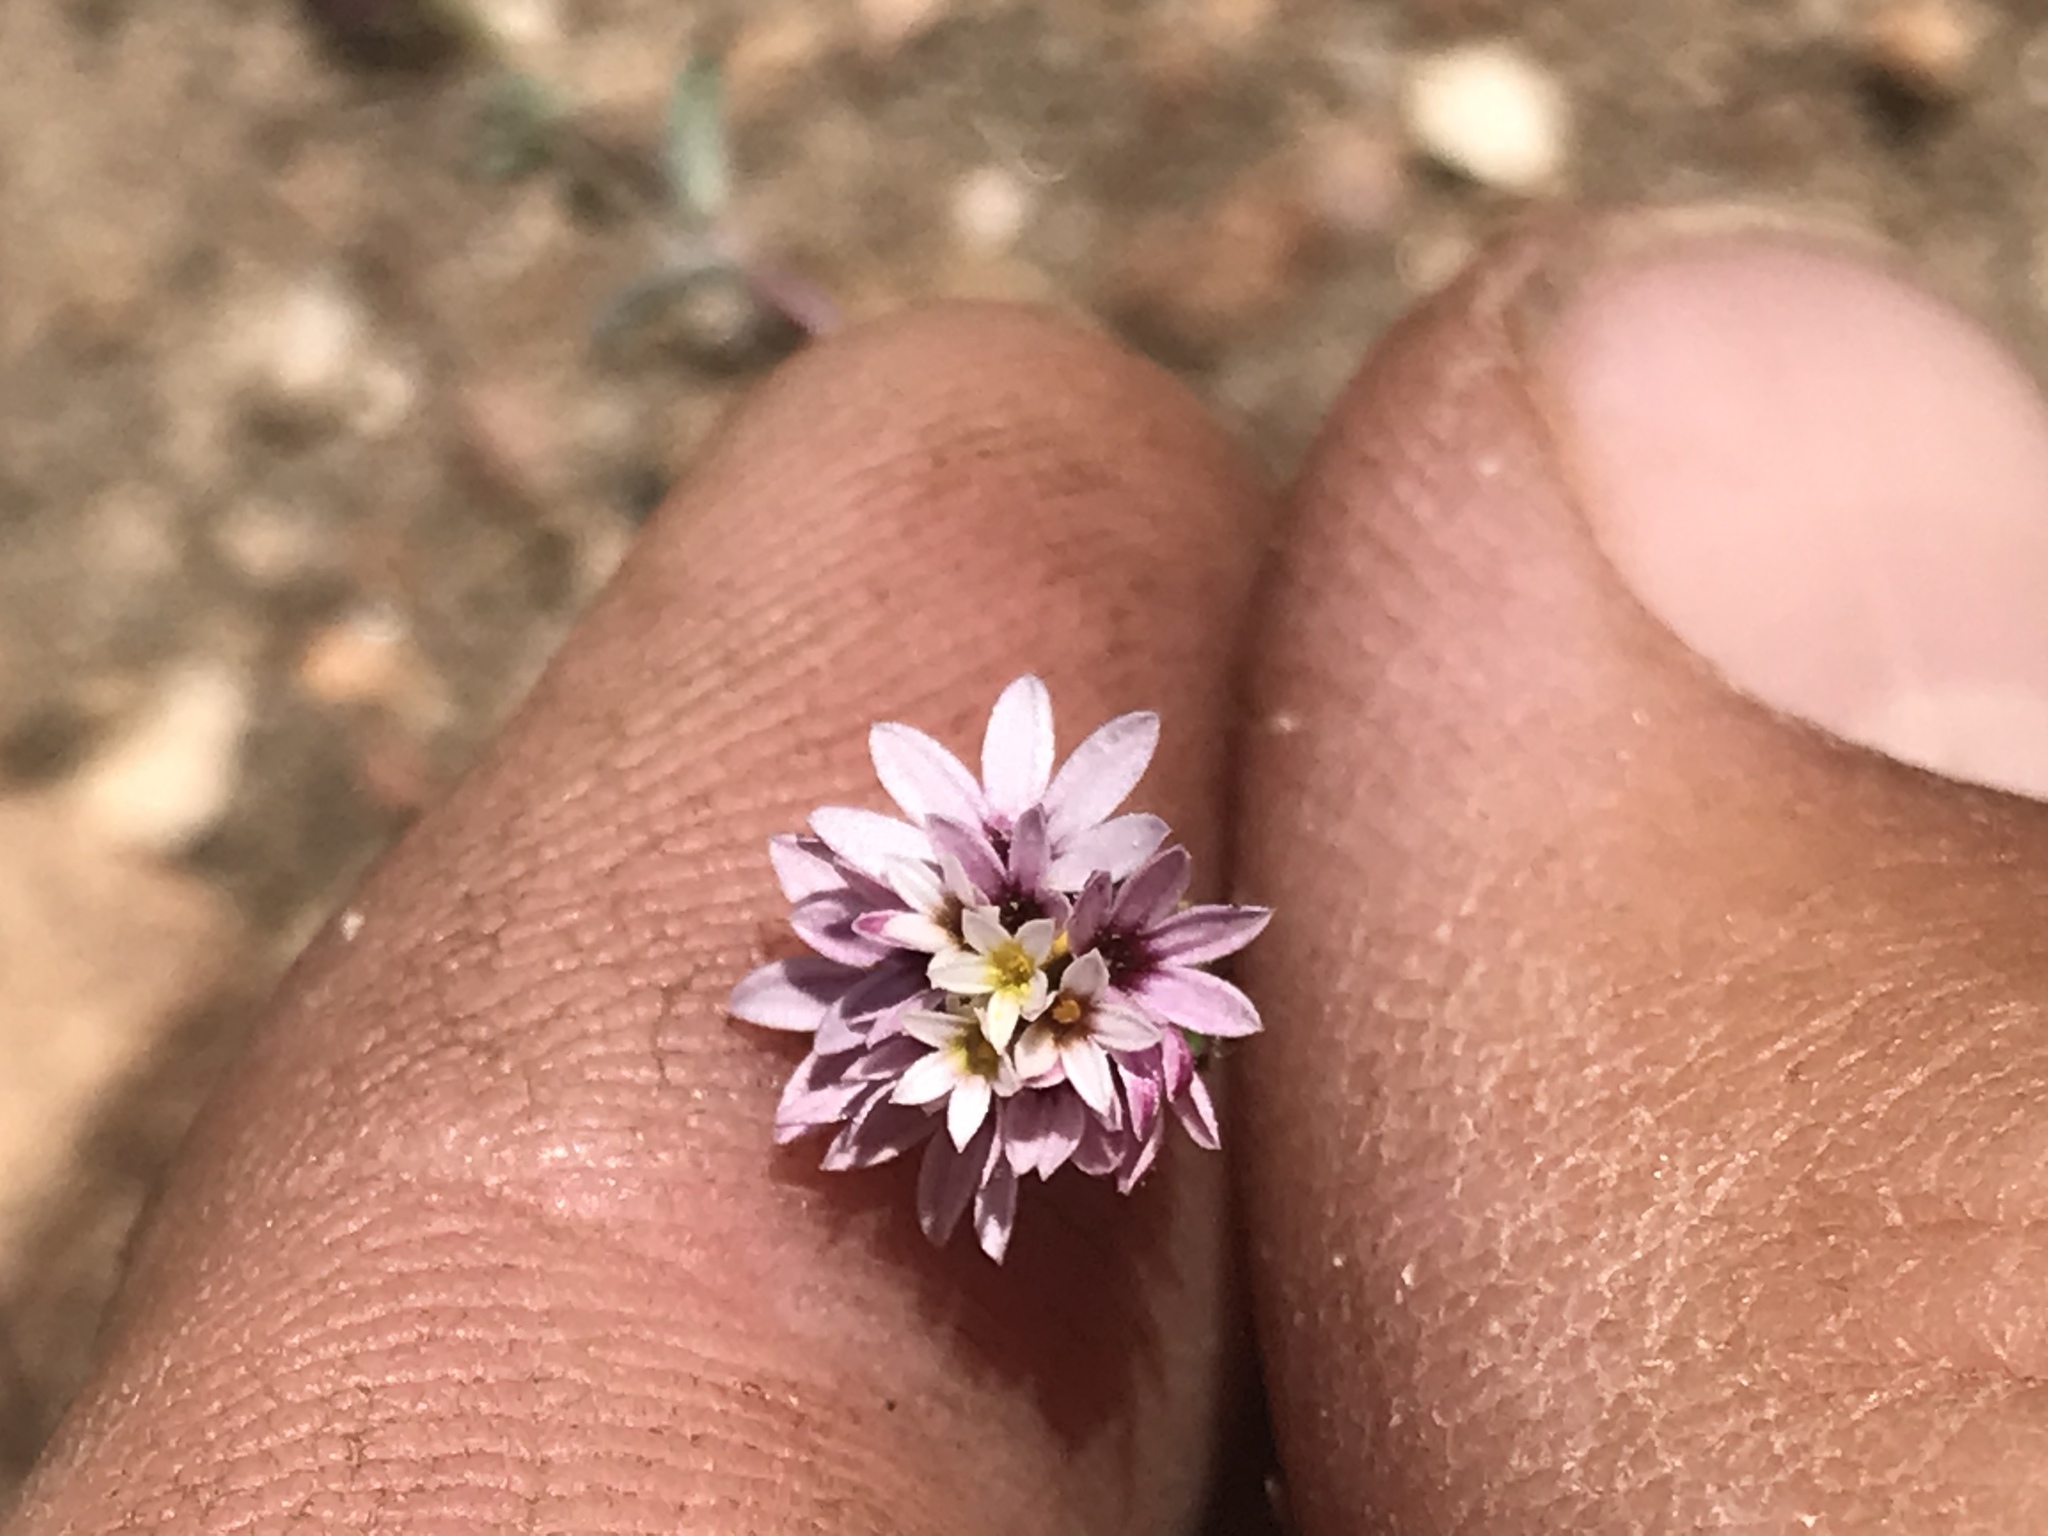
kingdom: Plantae
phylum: Tracheophyta
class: Magnoliopsida
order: Asterales
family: Asteraceae
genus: Lessingia
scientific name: Lessingia tenuis
